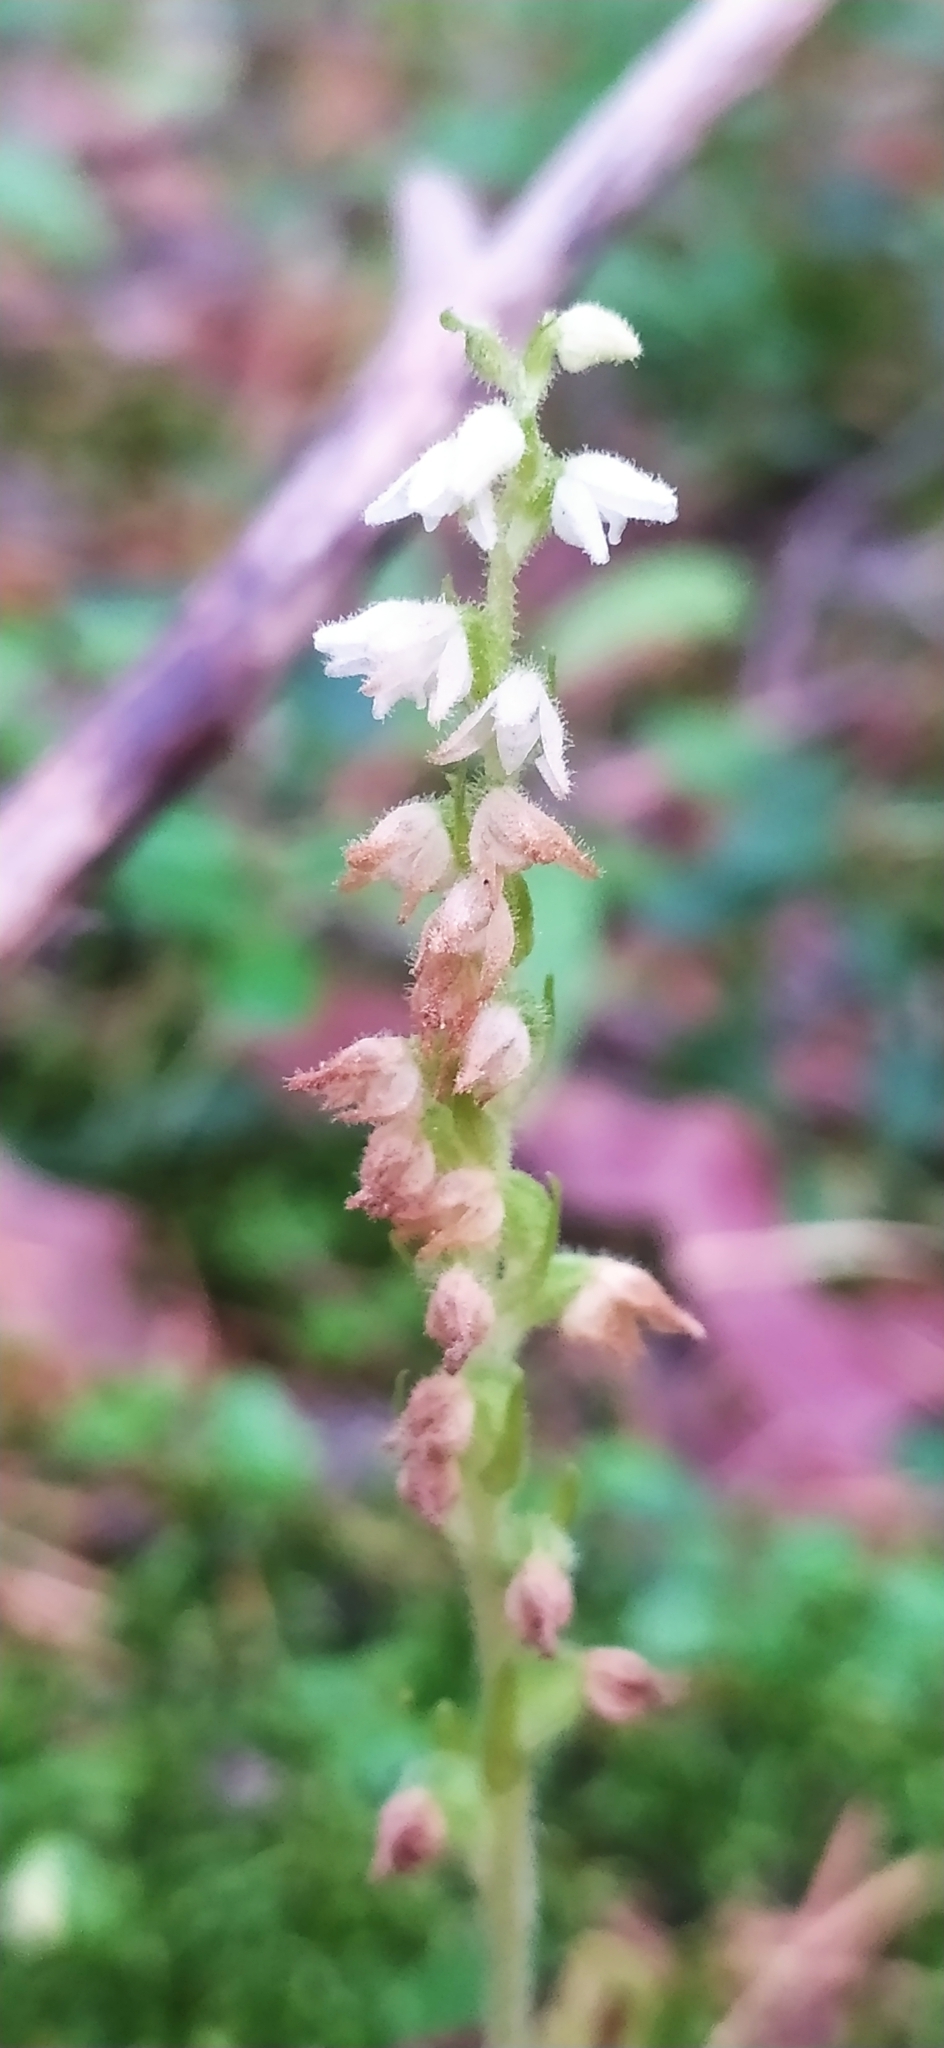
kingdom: Plantae
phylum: Tracheophyta
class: Liliopsida
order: Asparagales
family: Orchidaceae
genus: Goodyera
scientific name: Goodyera repens
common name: Creeping lady's-tresses
